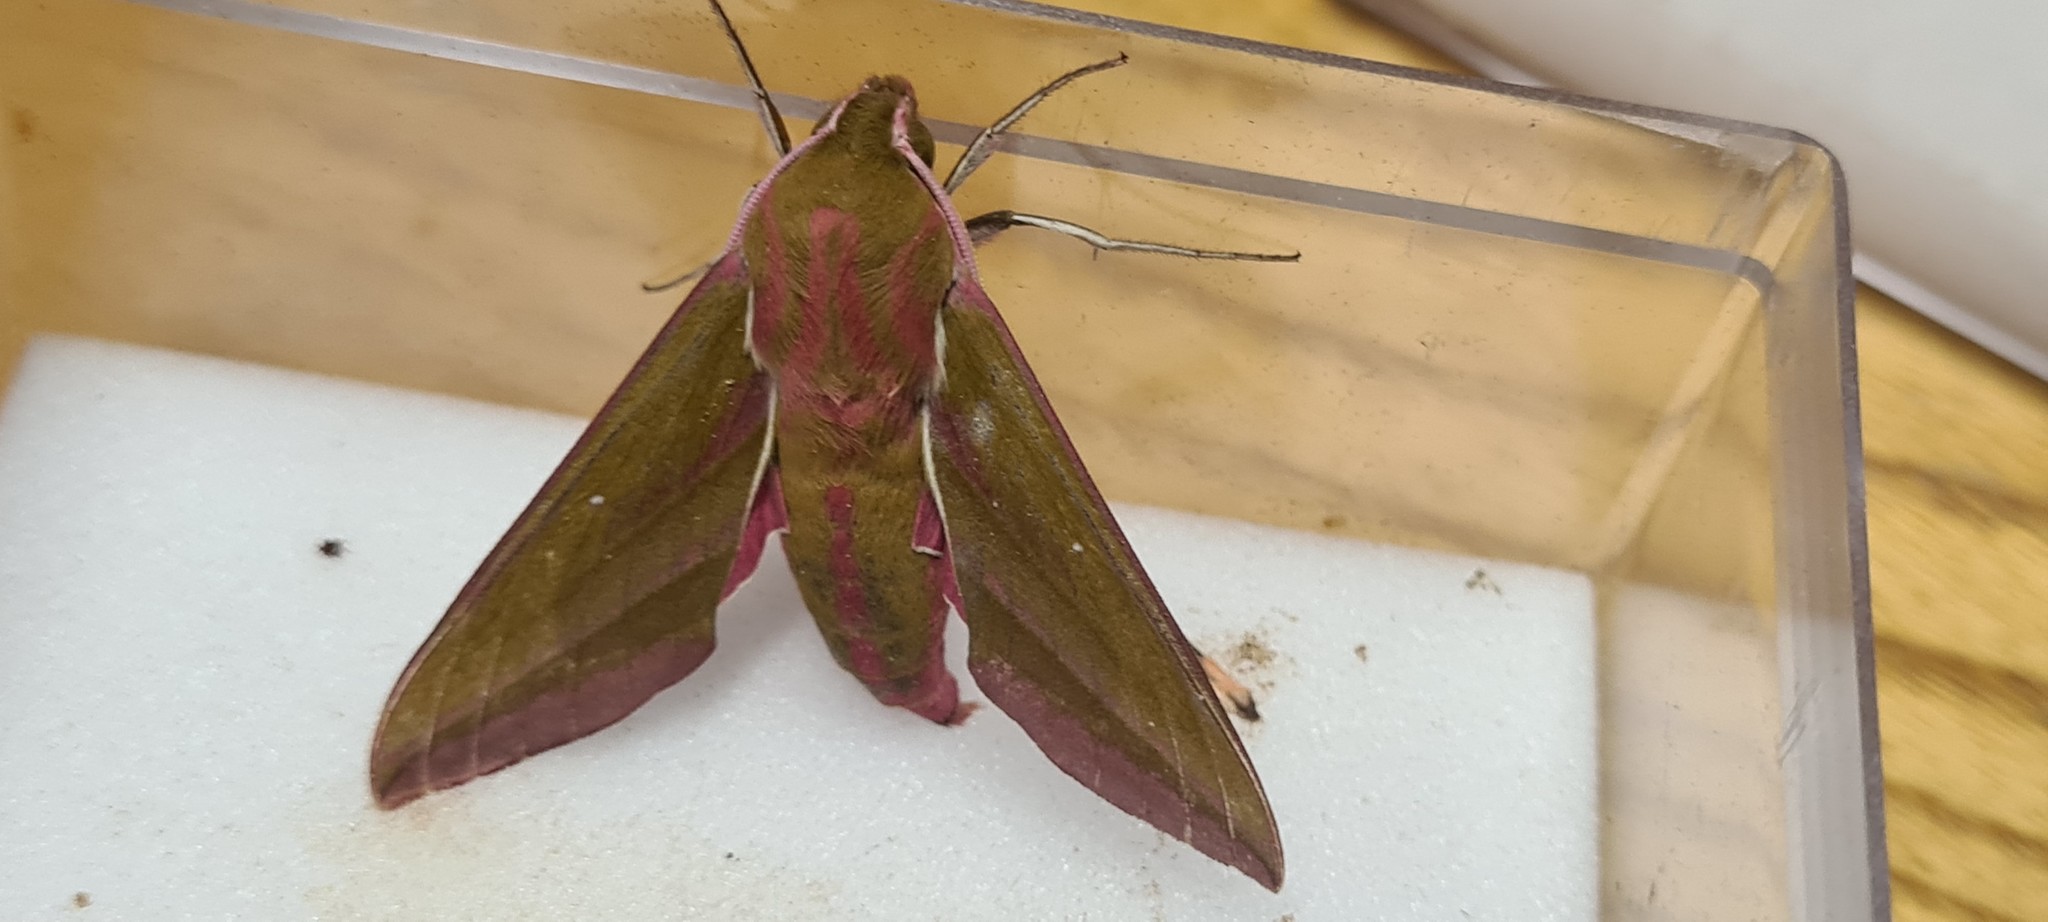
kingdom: Animalia
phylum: Arthropoda
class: Insecta
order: Lepidoptera
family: Sphingidae
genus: Deilephila
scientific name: Deilephila elpenor
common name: Elephant hawk-moth
